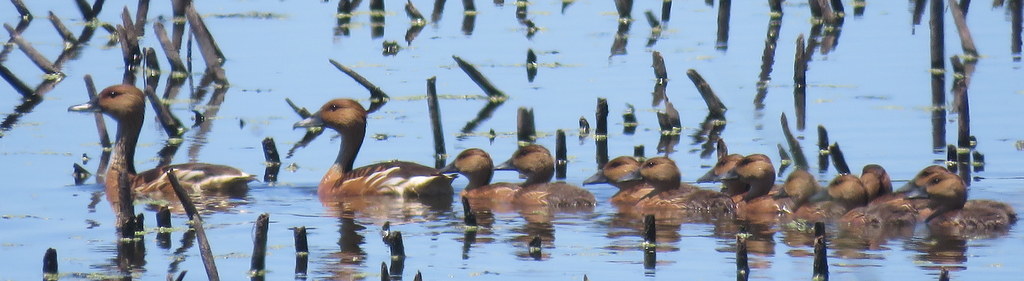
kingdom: Animalia
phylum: Chordata
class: Aves
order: Anseriformes
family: Anatidae
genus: Dendrocygna
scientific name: Dendrocygna bicolor
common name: Fulvous whistling duck
